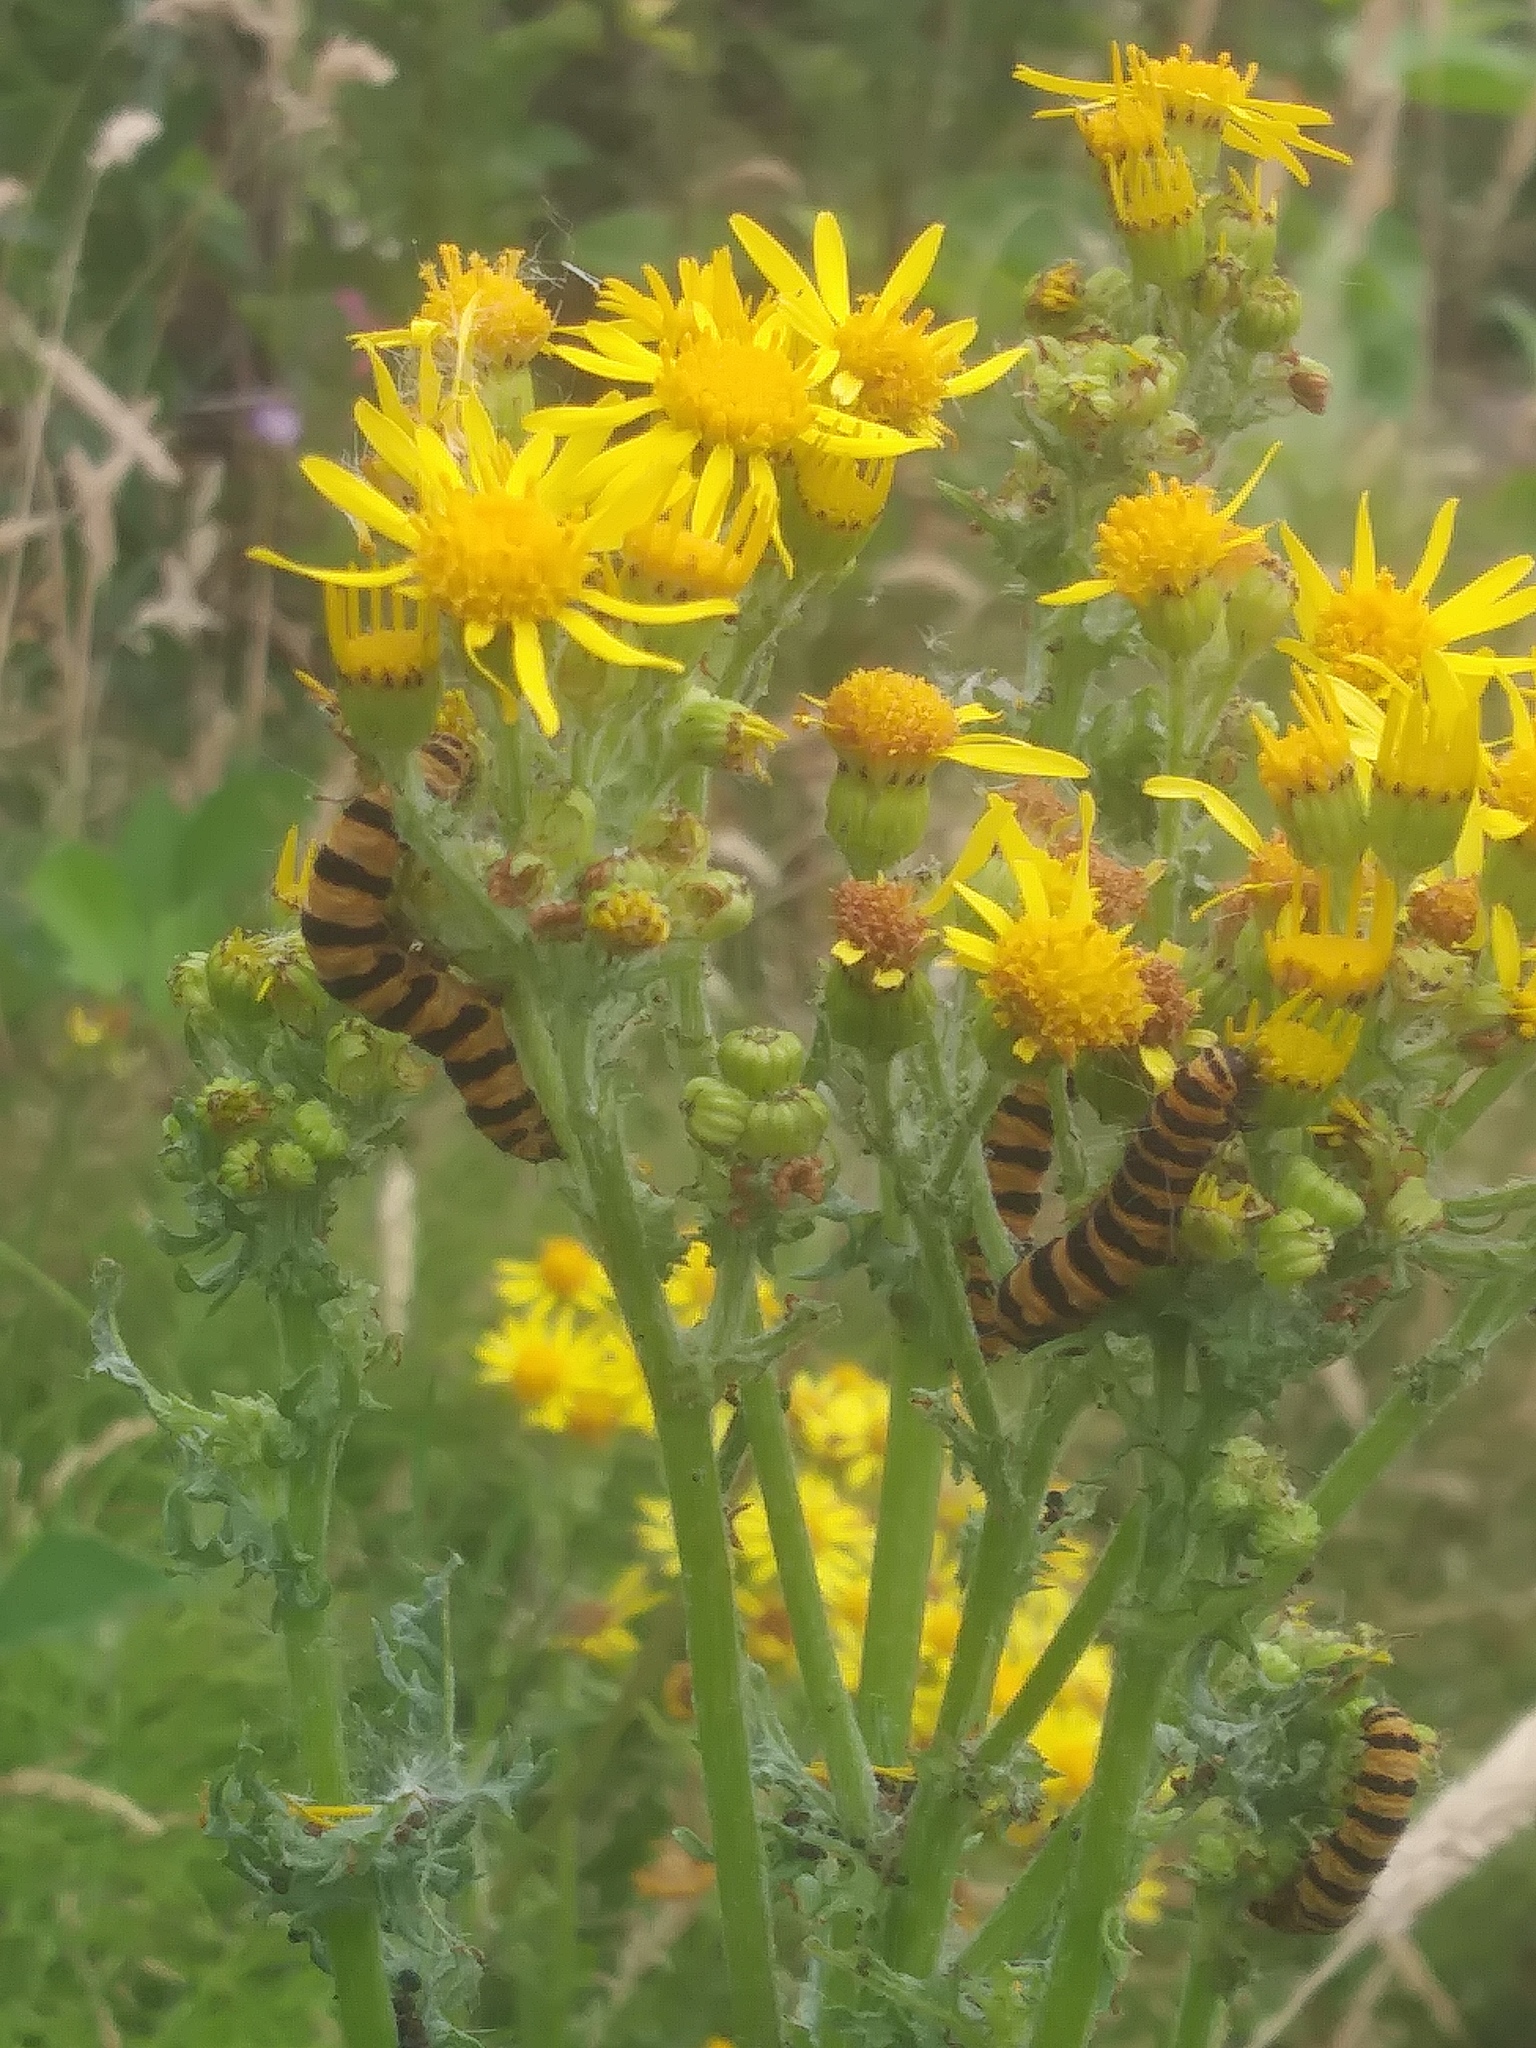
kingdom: Animalia
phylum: Arthropoda
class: Insecta
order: Lepidoptera
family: Erebidae
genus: Tyria
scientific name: Tyria jacobaeae
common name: Cinnabar
